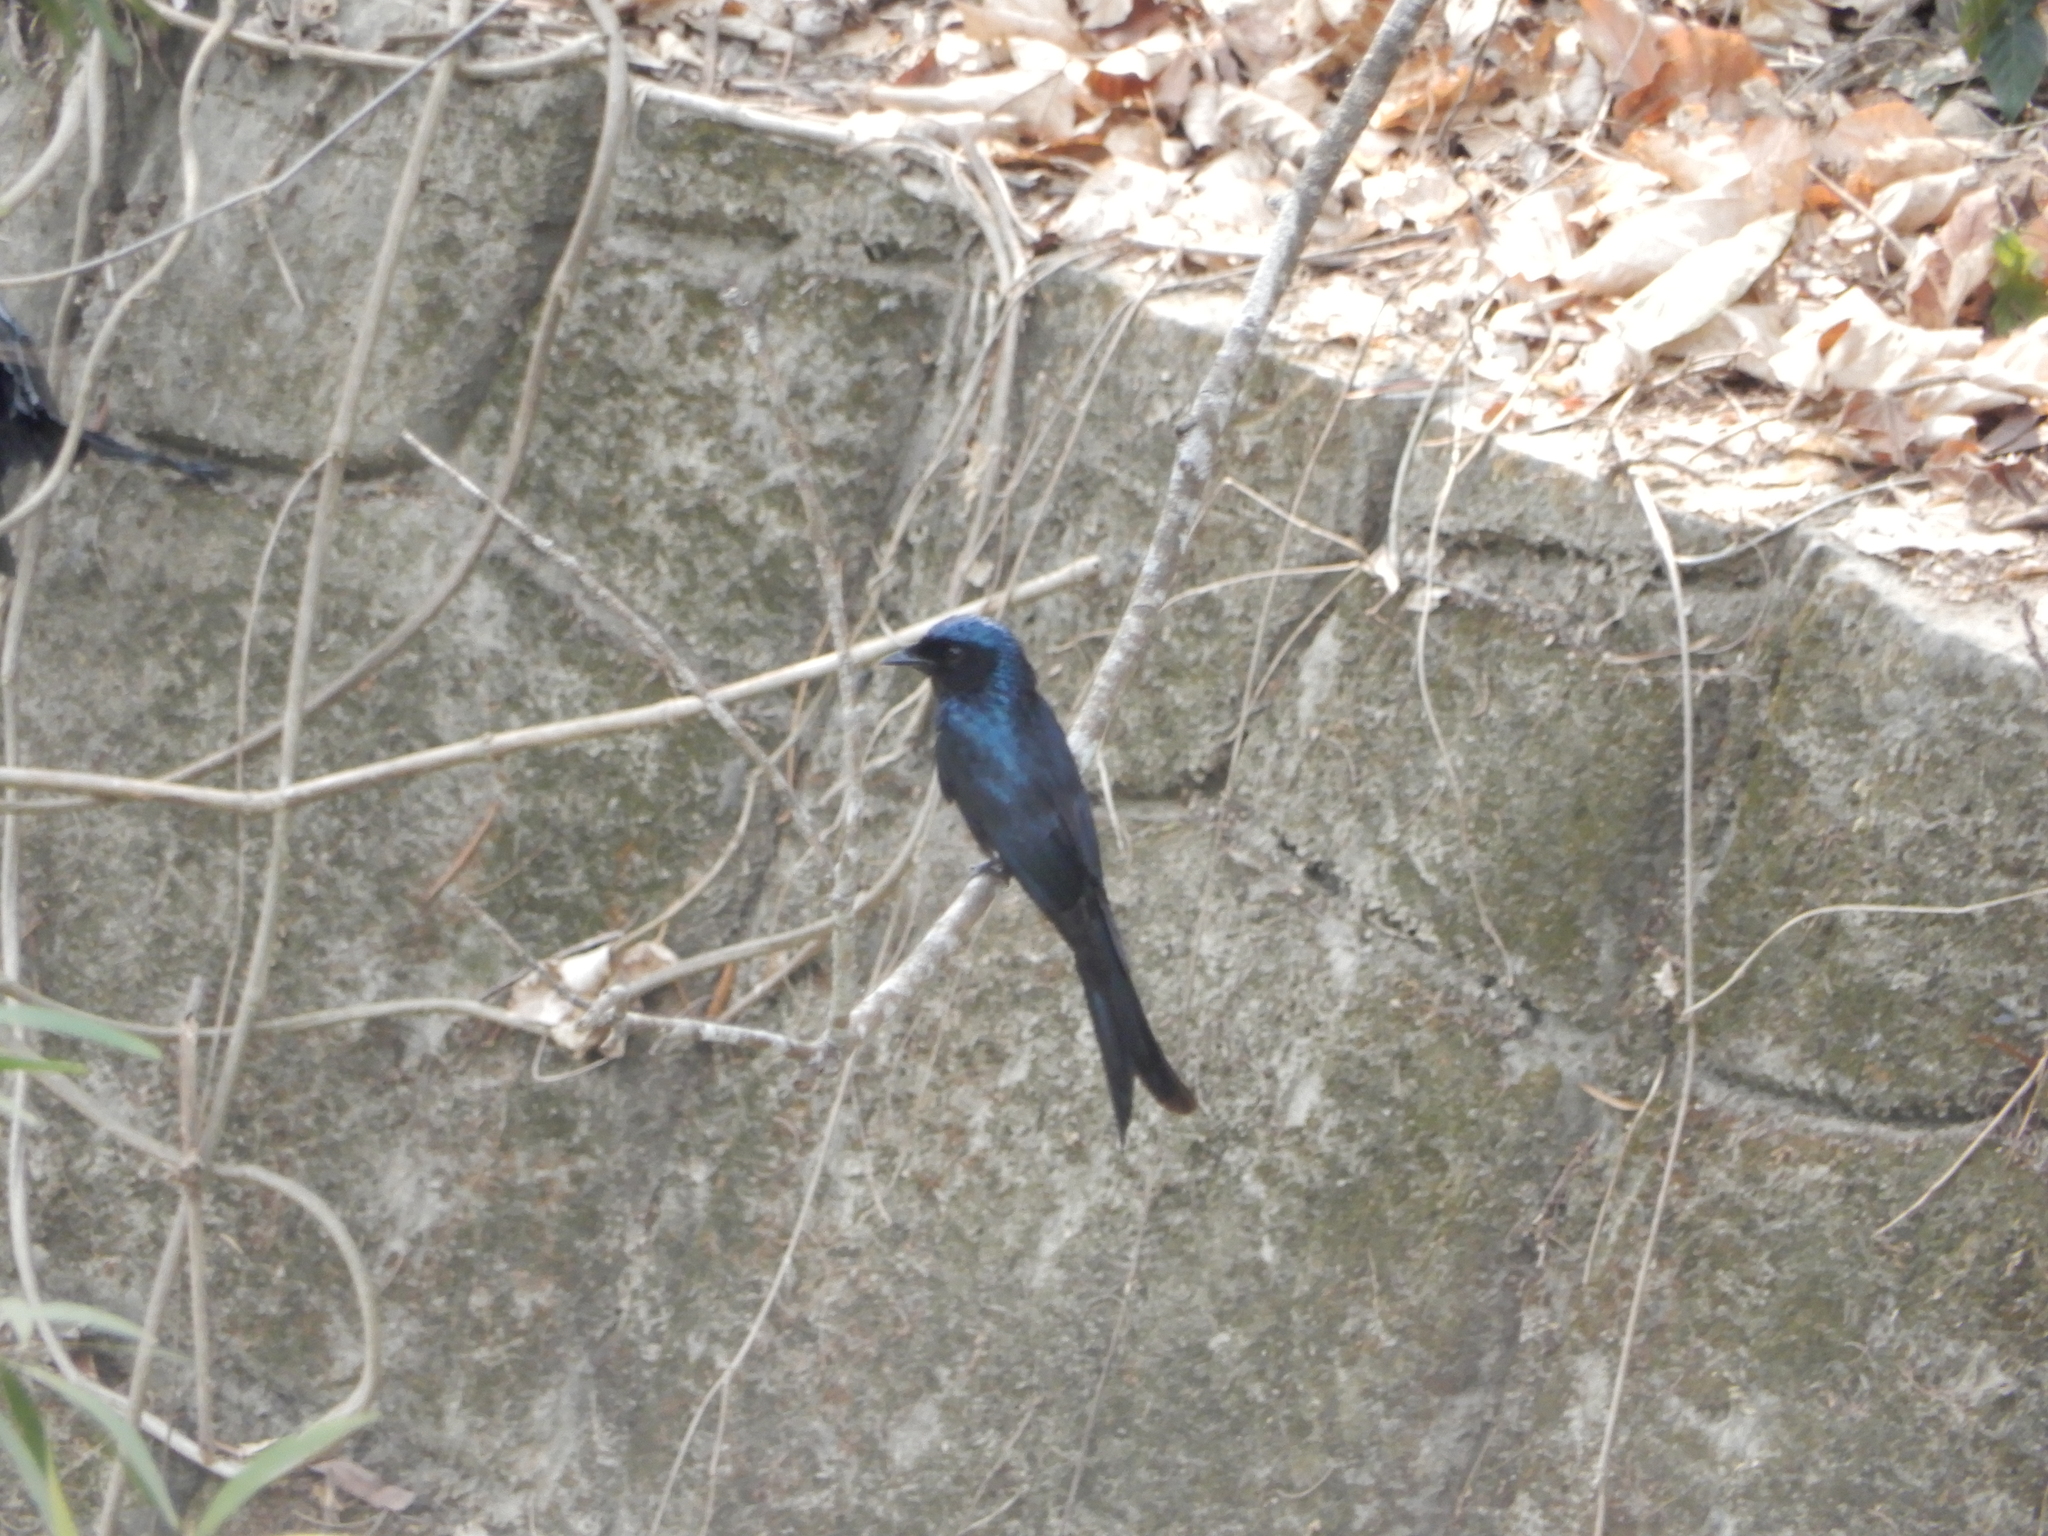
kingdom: Animalia
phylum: Chordata
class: Aves
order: Passeriformes
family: Dicruridae
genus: Dicrurus
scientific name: Dicrurus aeneus
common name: Bronzed drongo
